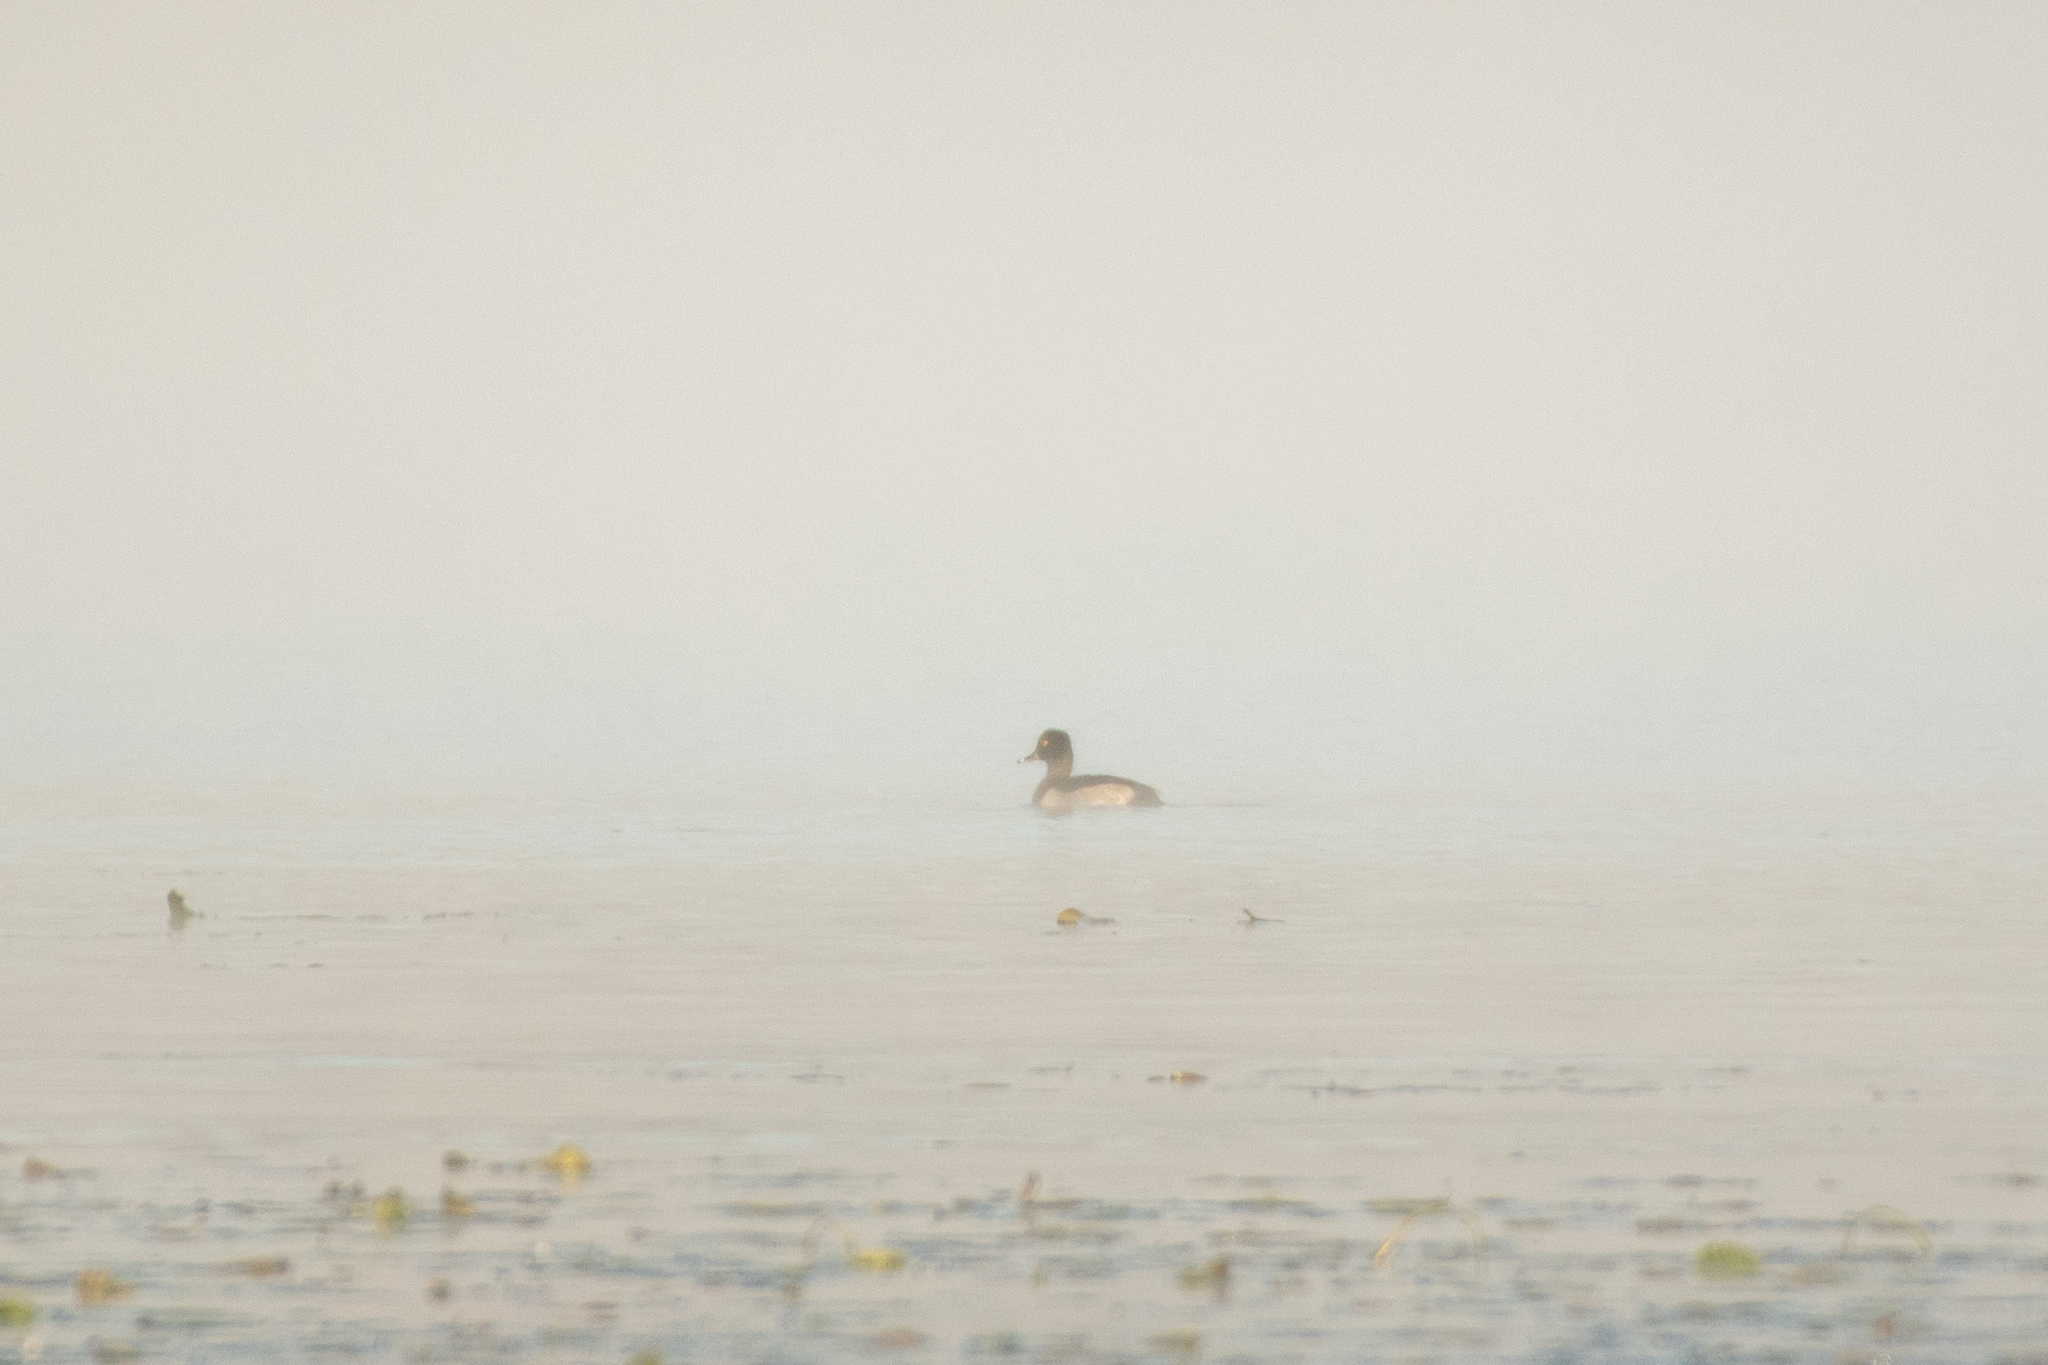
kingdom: Animalia
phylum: Chordata
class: Aves
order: Anseriformes
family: Anatidae
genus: Aythya
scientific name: Aythya collaris
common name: Ring-necked duck
